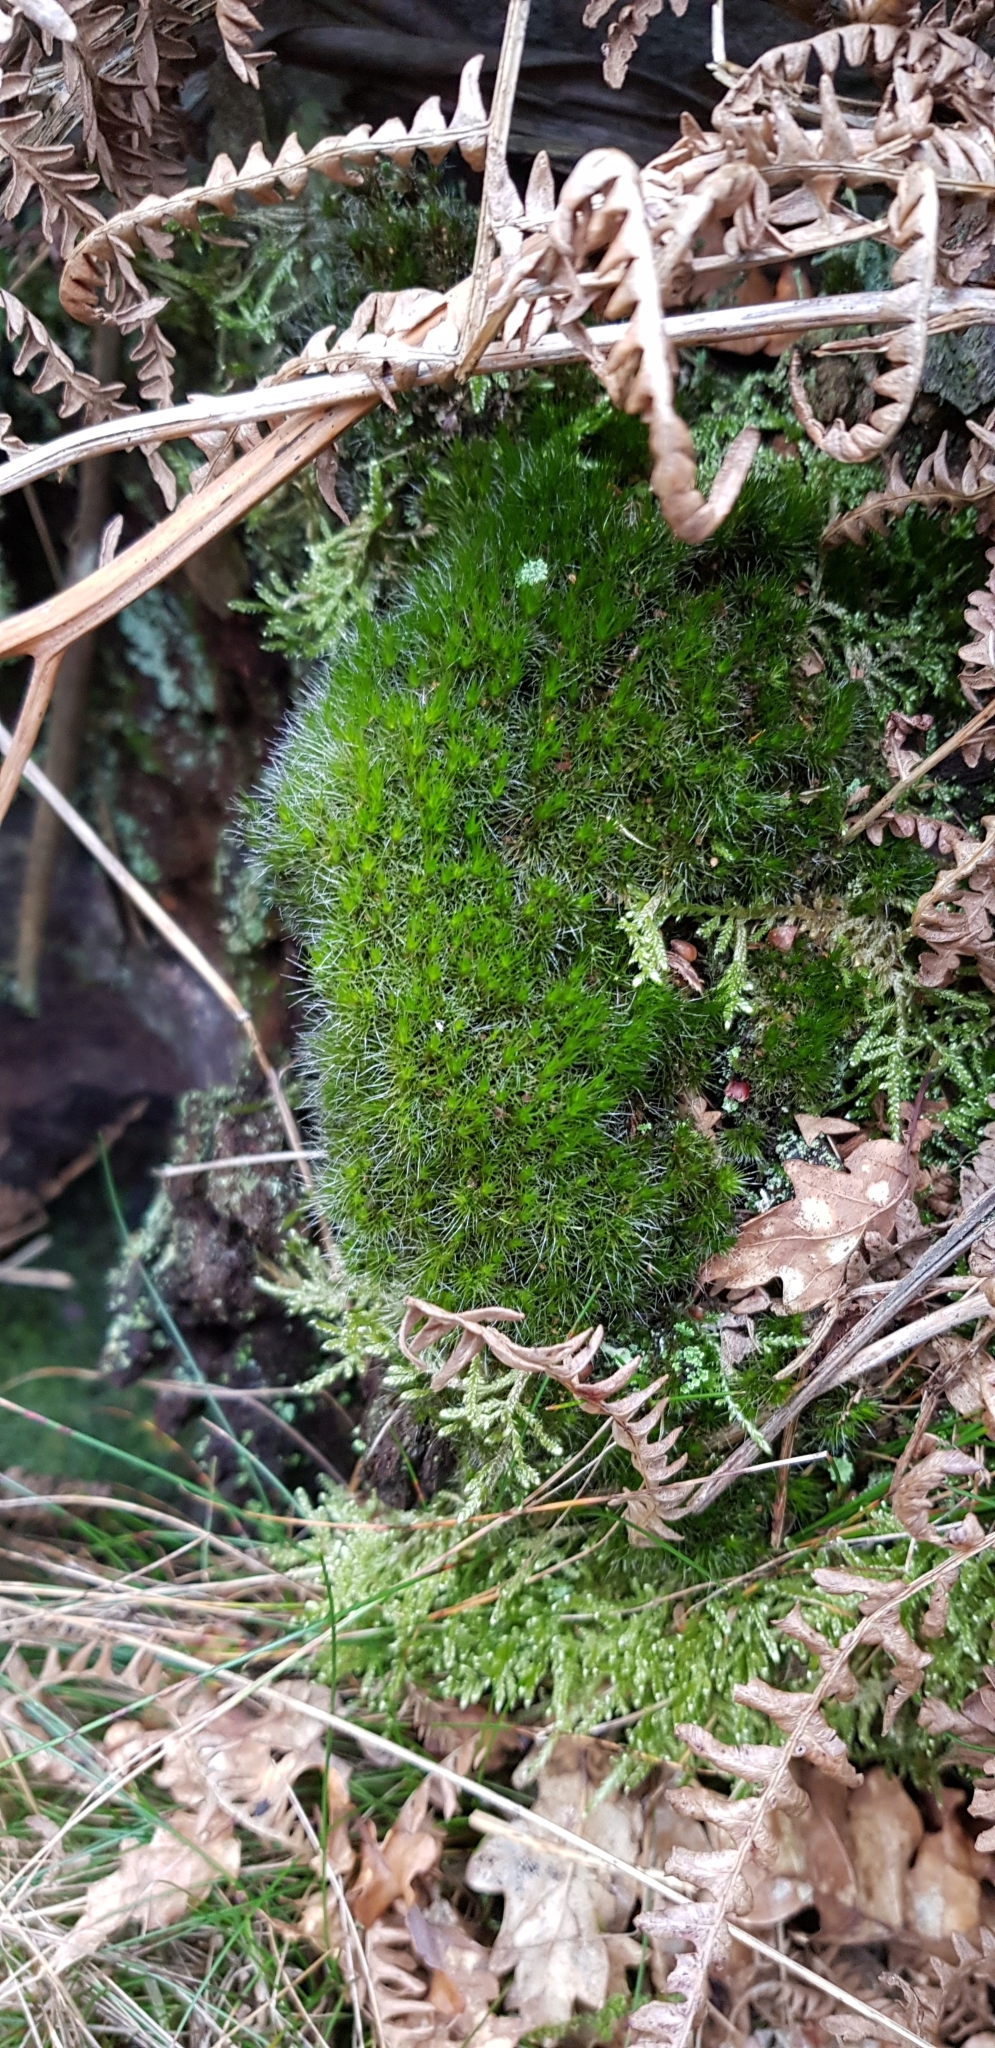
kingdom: Plantae
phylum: Bryophyta
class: Bryopsida
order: Dicranales
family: Leucobryaceae
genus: Campylopus
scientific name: Campylopus introflexus
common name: Heath star moss
